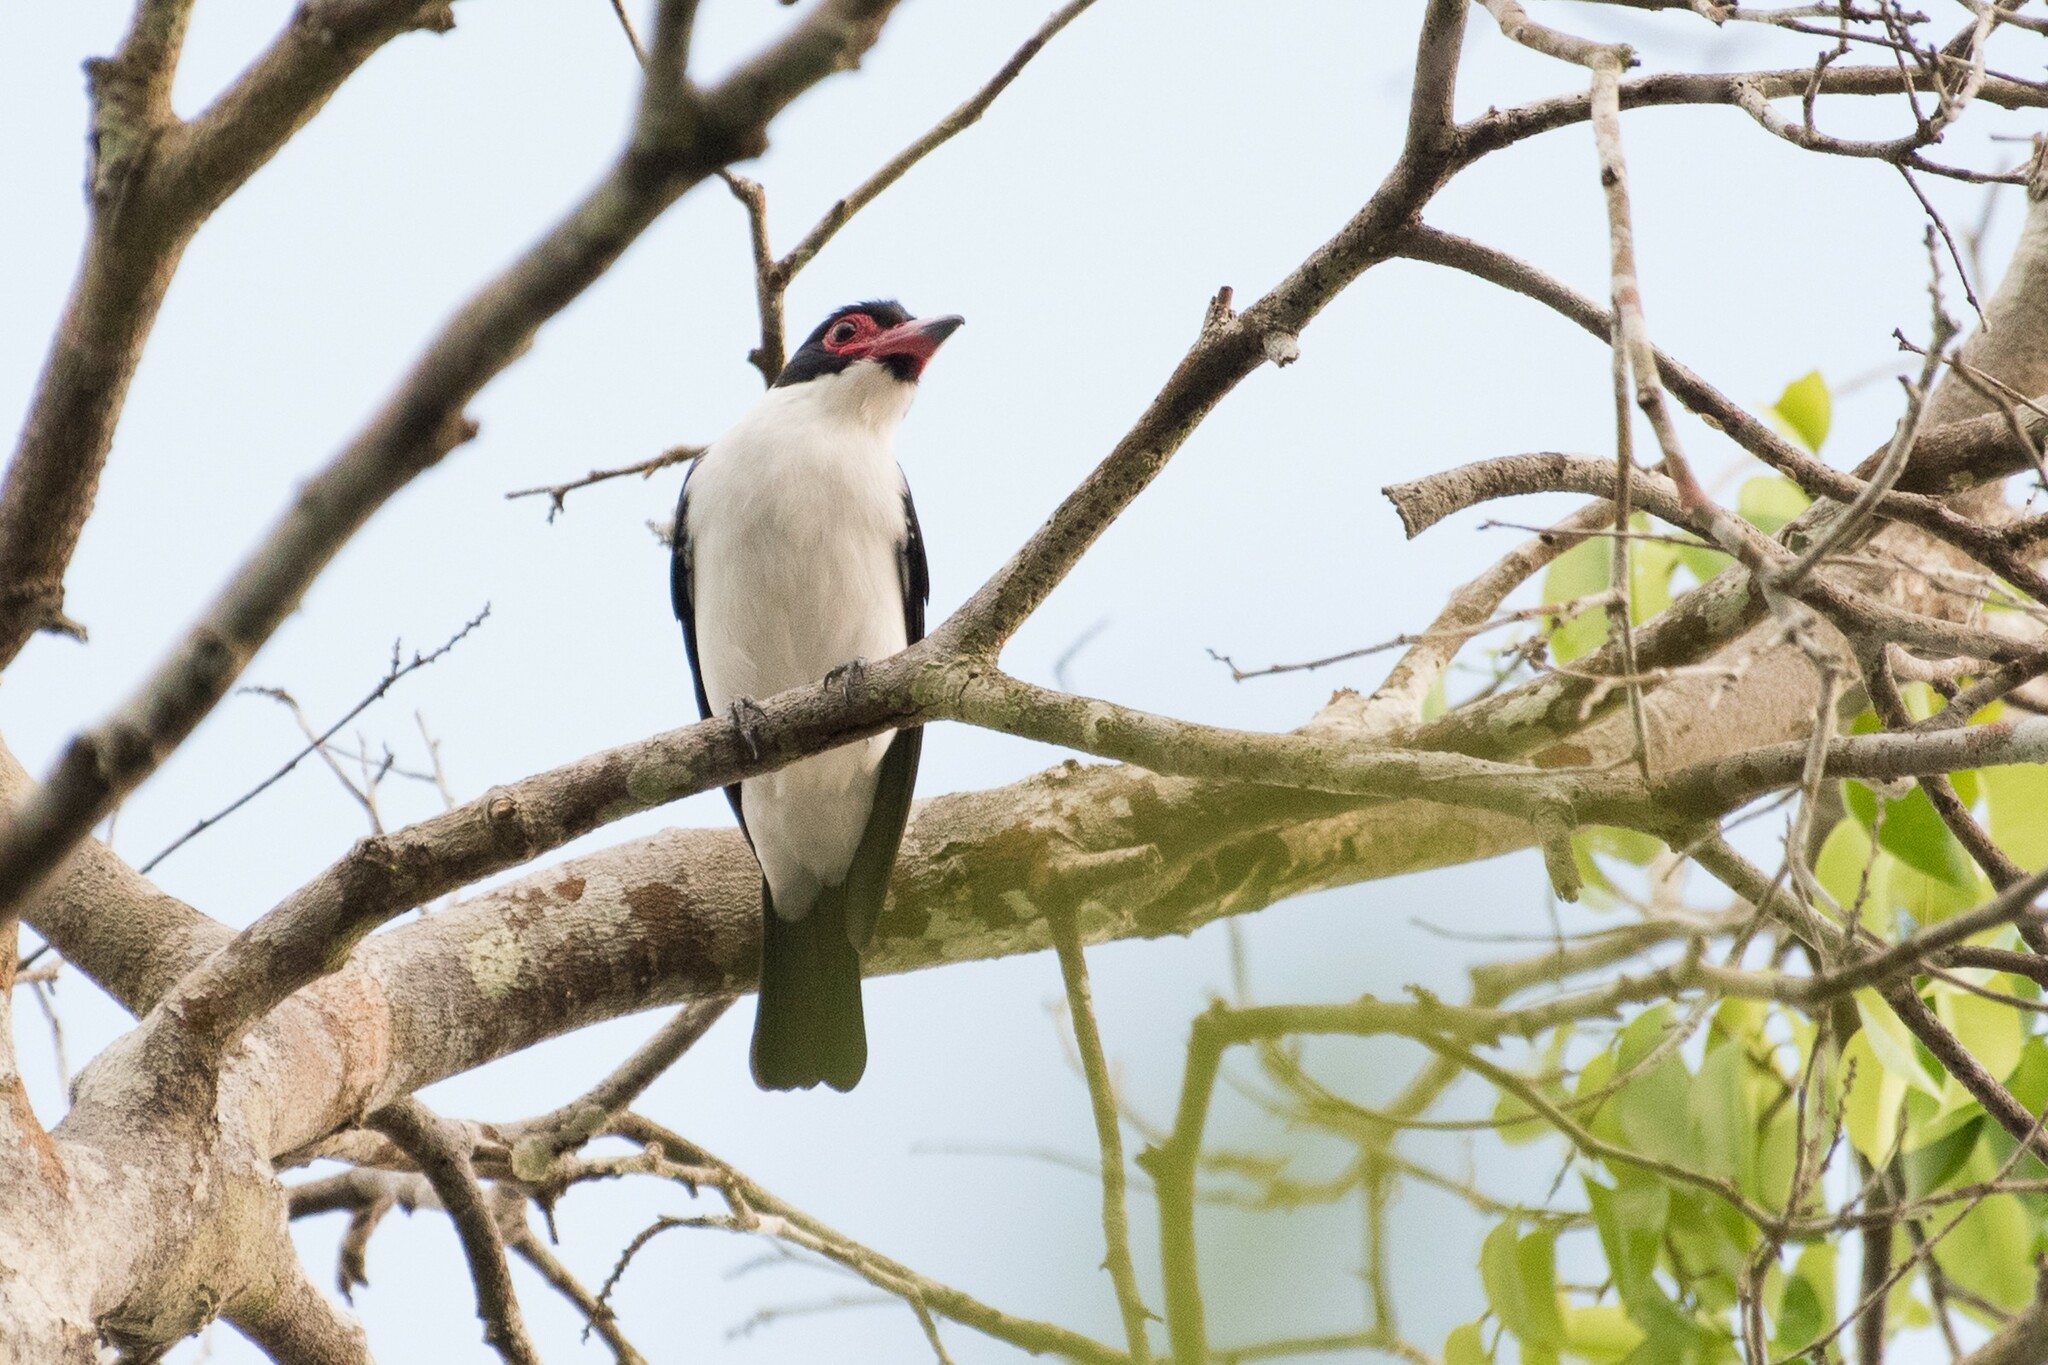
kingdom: Animalia
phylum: Chordata
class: Aves
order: Passeriformes
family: Cotingidae
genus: Tityra
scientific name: Tityra cayana
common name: Black-tailed tityra
